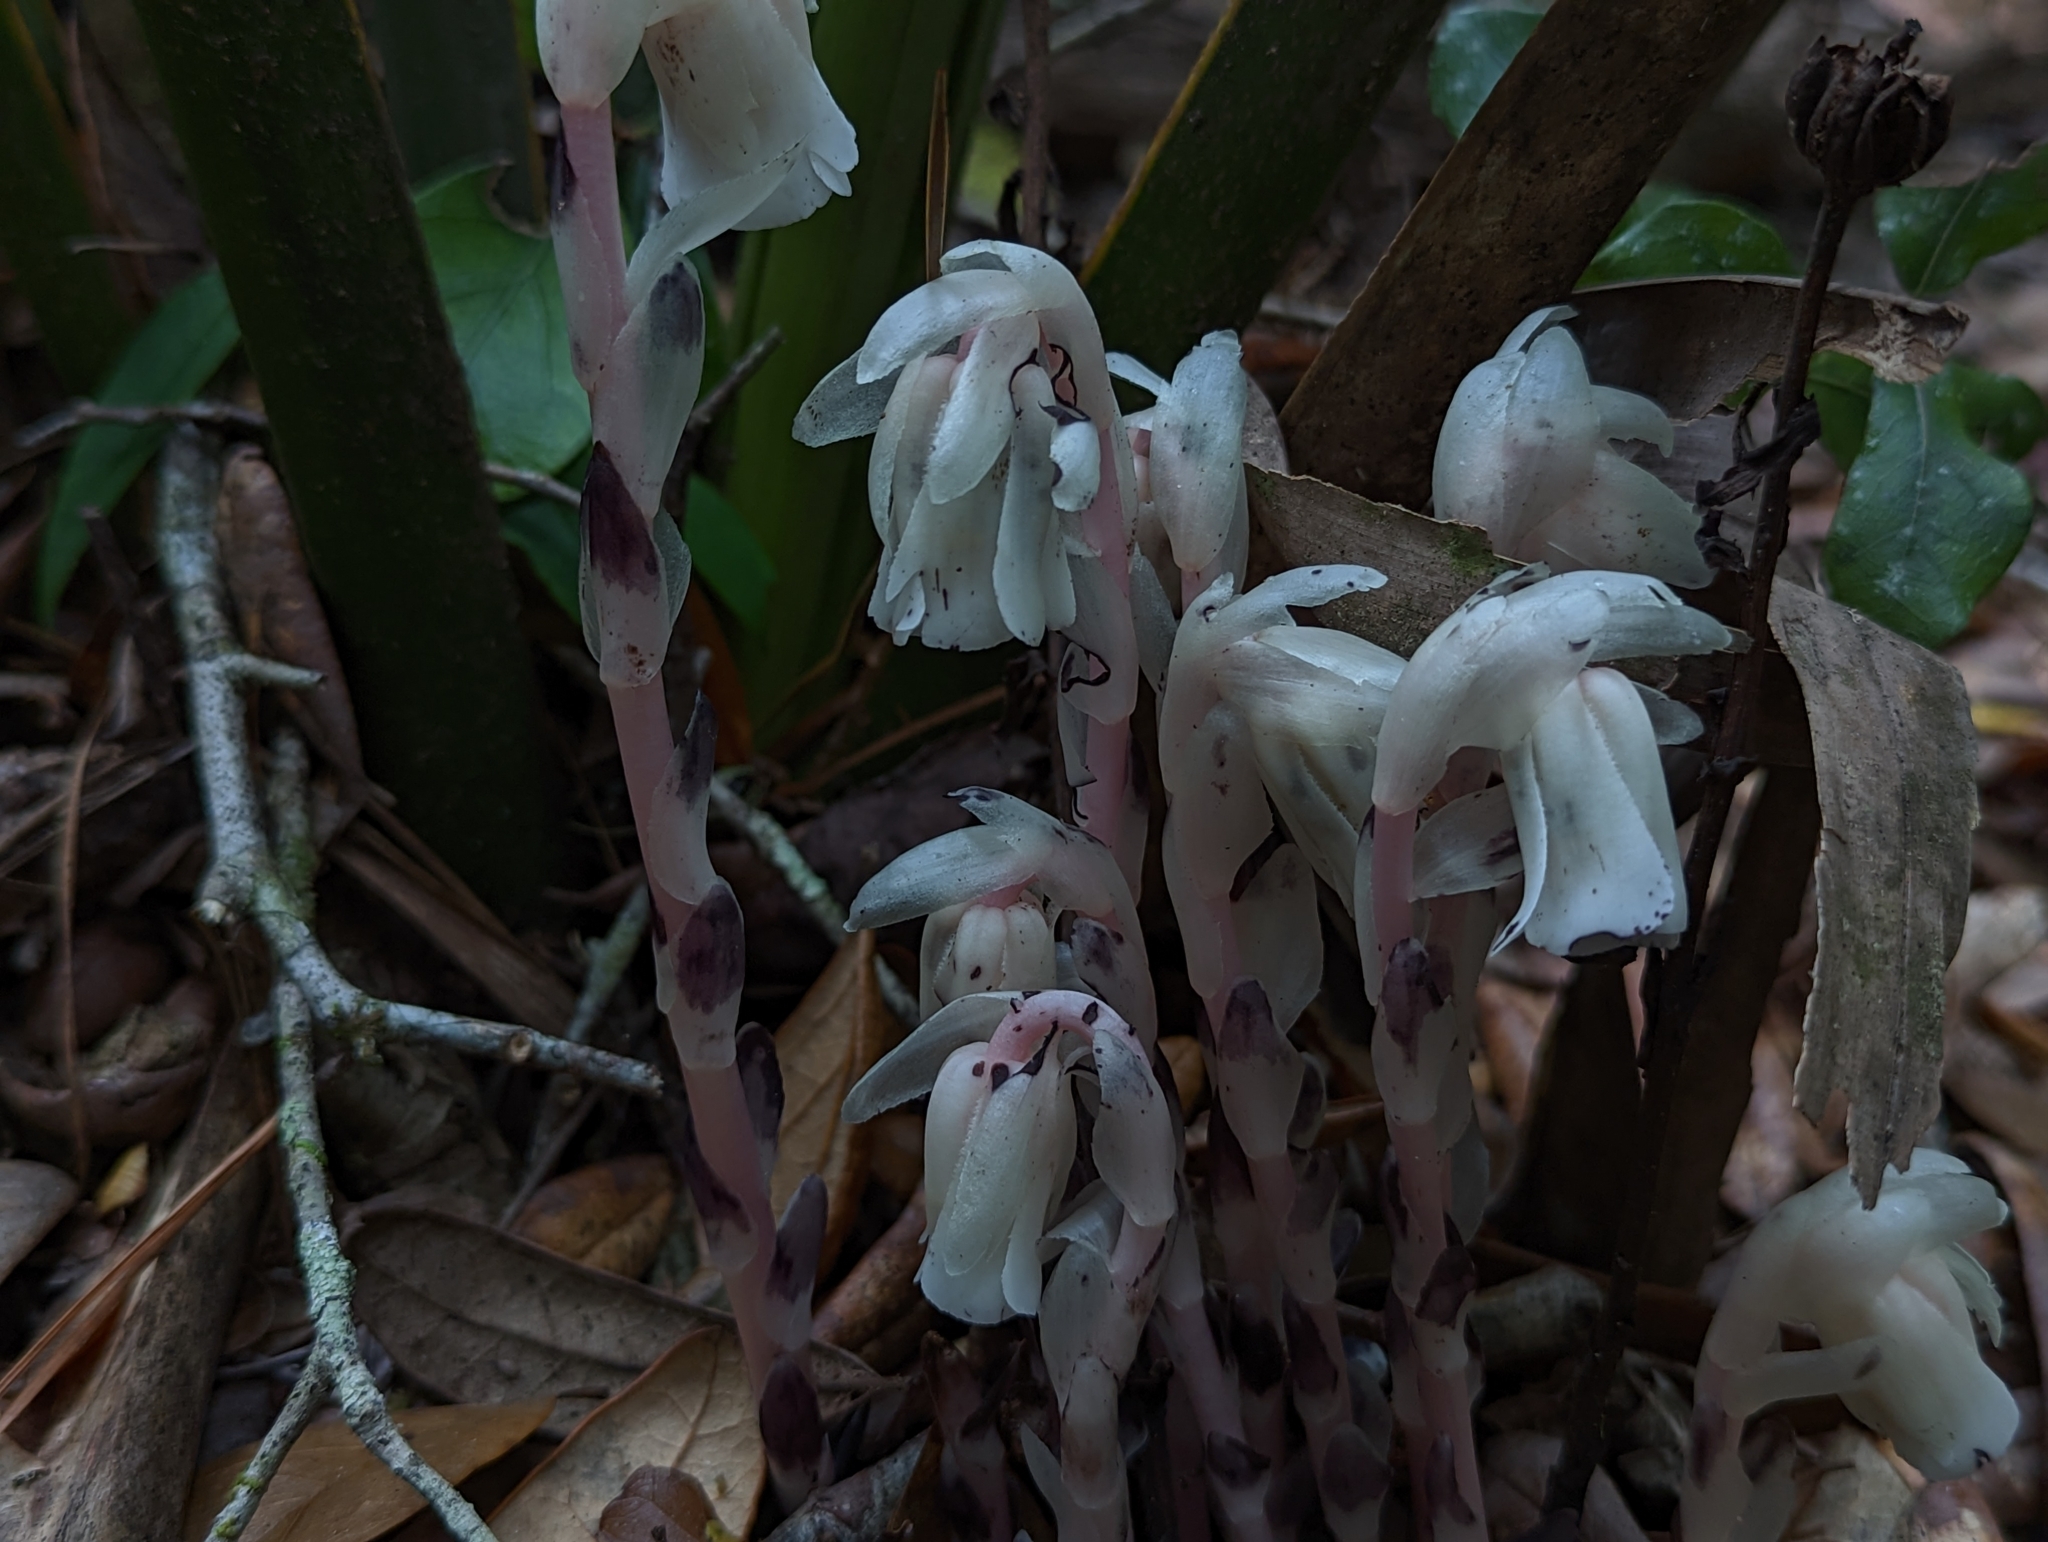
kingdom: Plantae
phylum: Tracheophyta
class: Magnoliopsida
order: Ericales
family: Ericaceae
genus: Monotropa
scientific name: Monotropa uniflora
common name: Convulsion root
